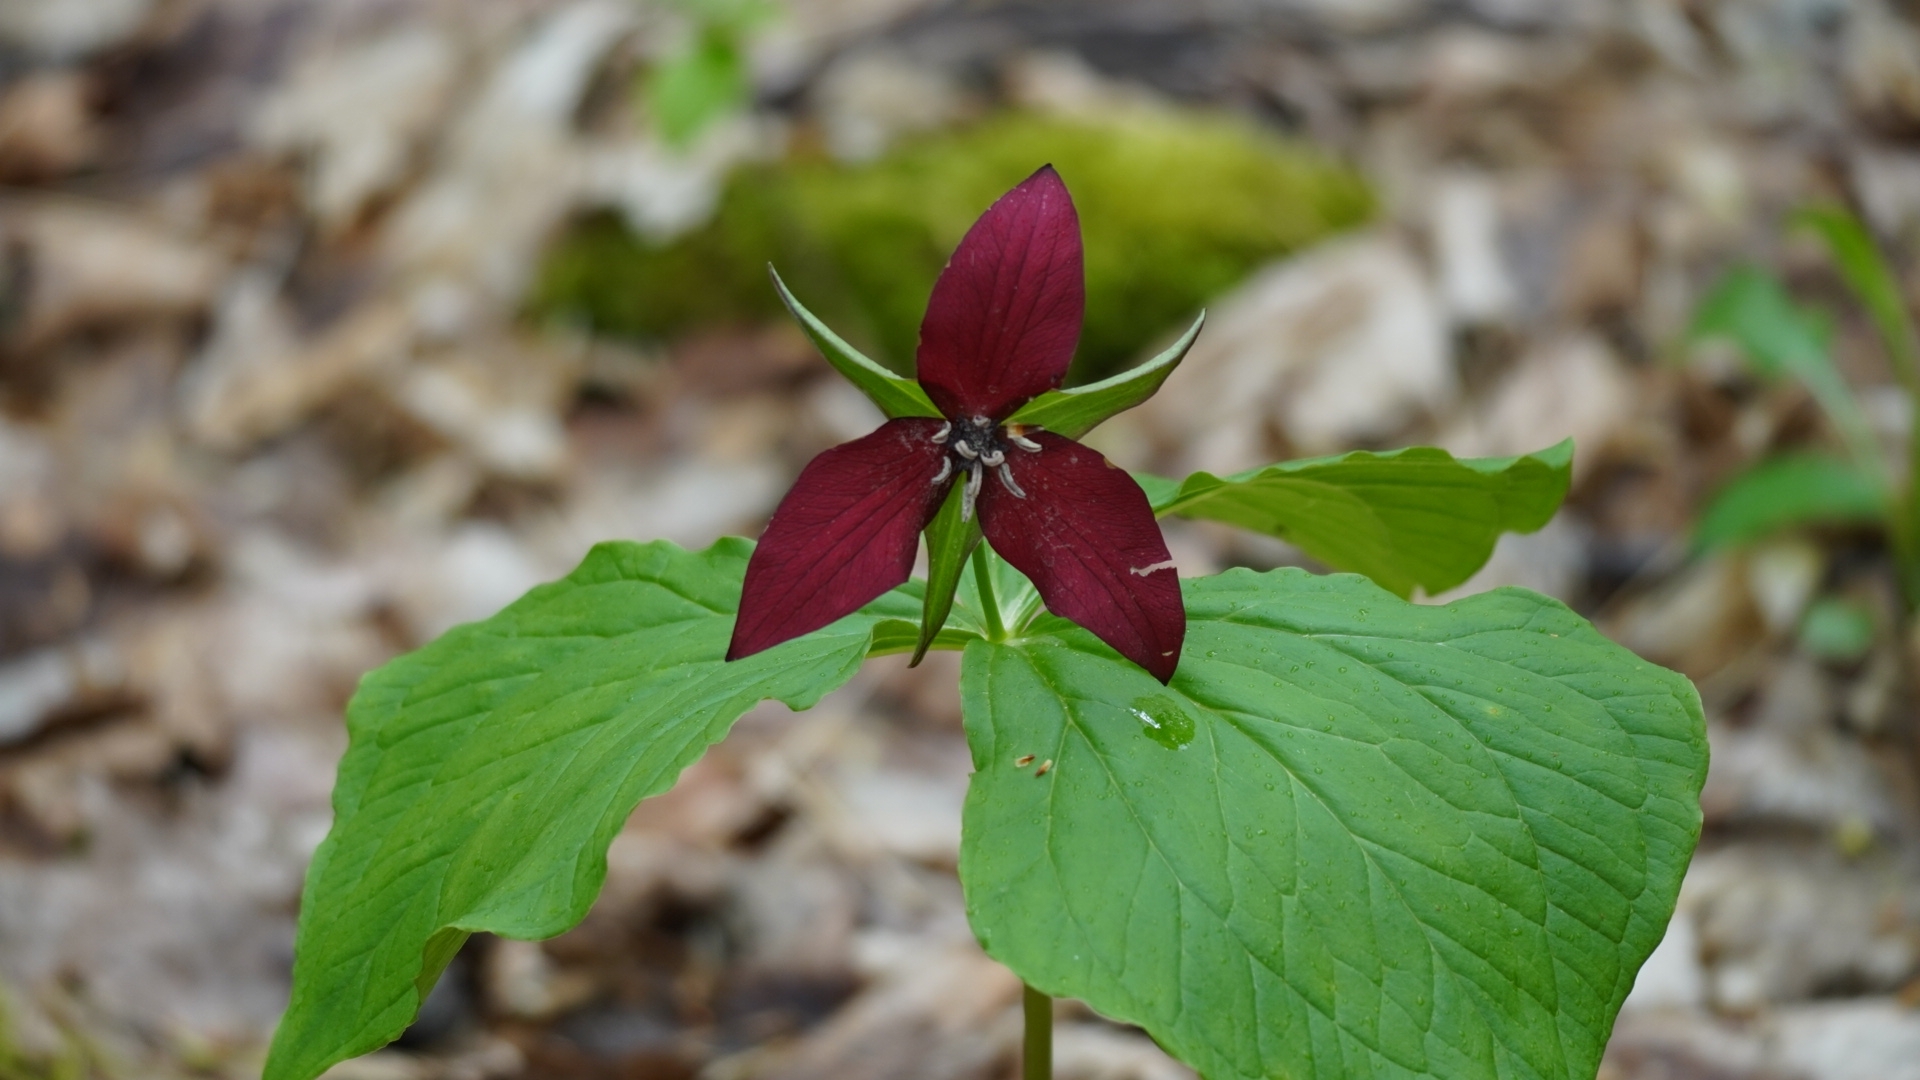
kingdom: Plantae
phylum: Tracheophyta
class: Liliopsida
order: Liliales
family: Melanthiaceae
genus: Trillium
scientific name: Trillium erectum
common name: Purple trillium
